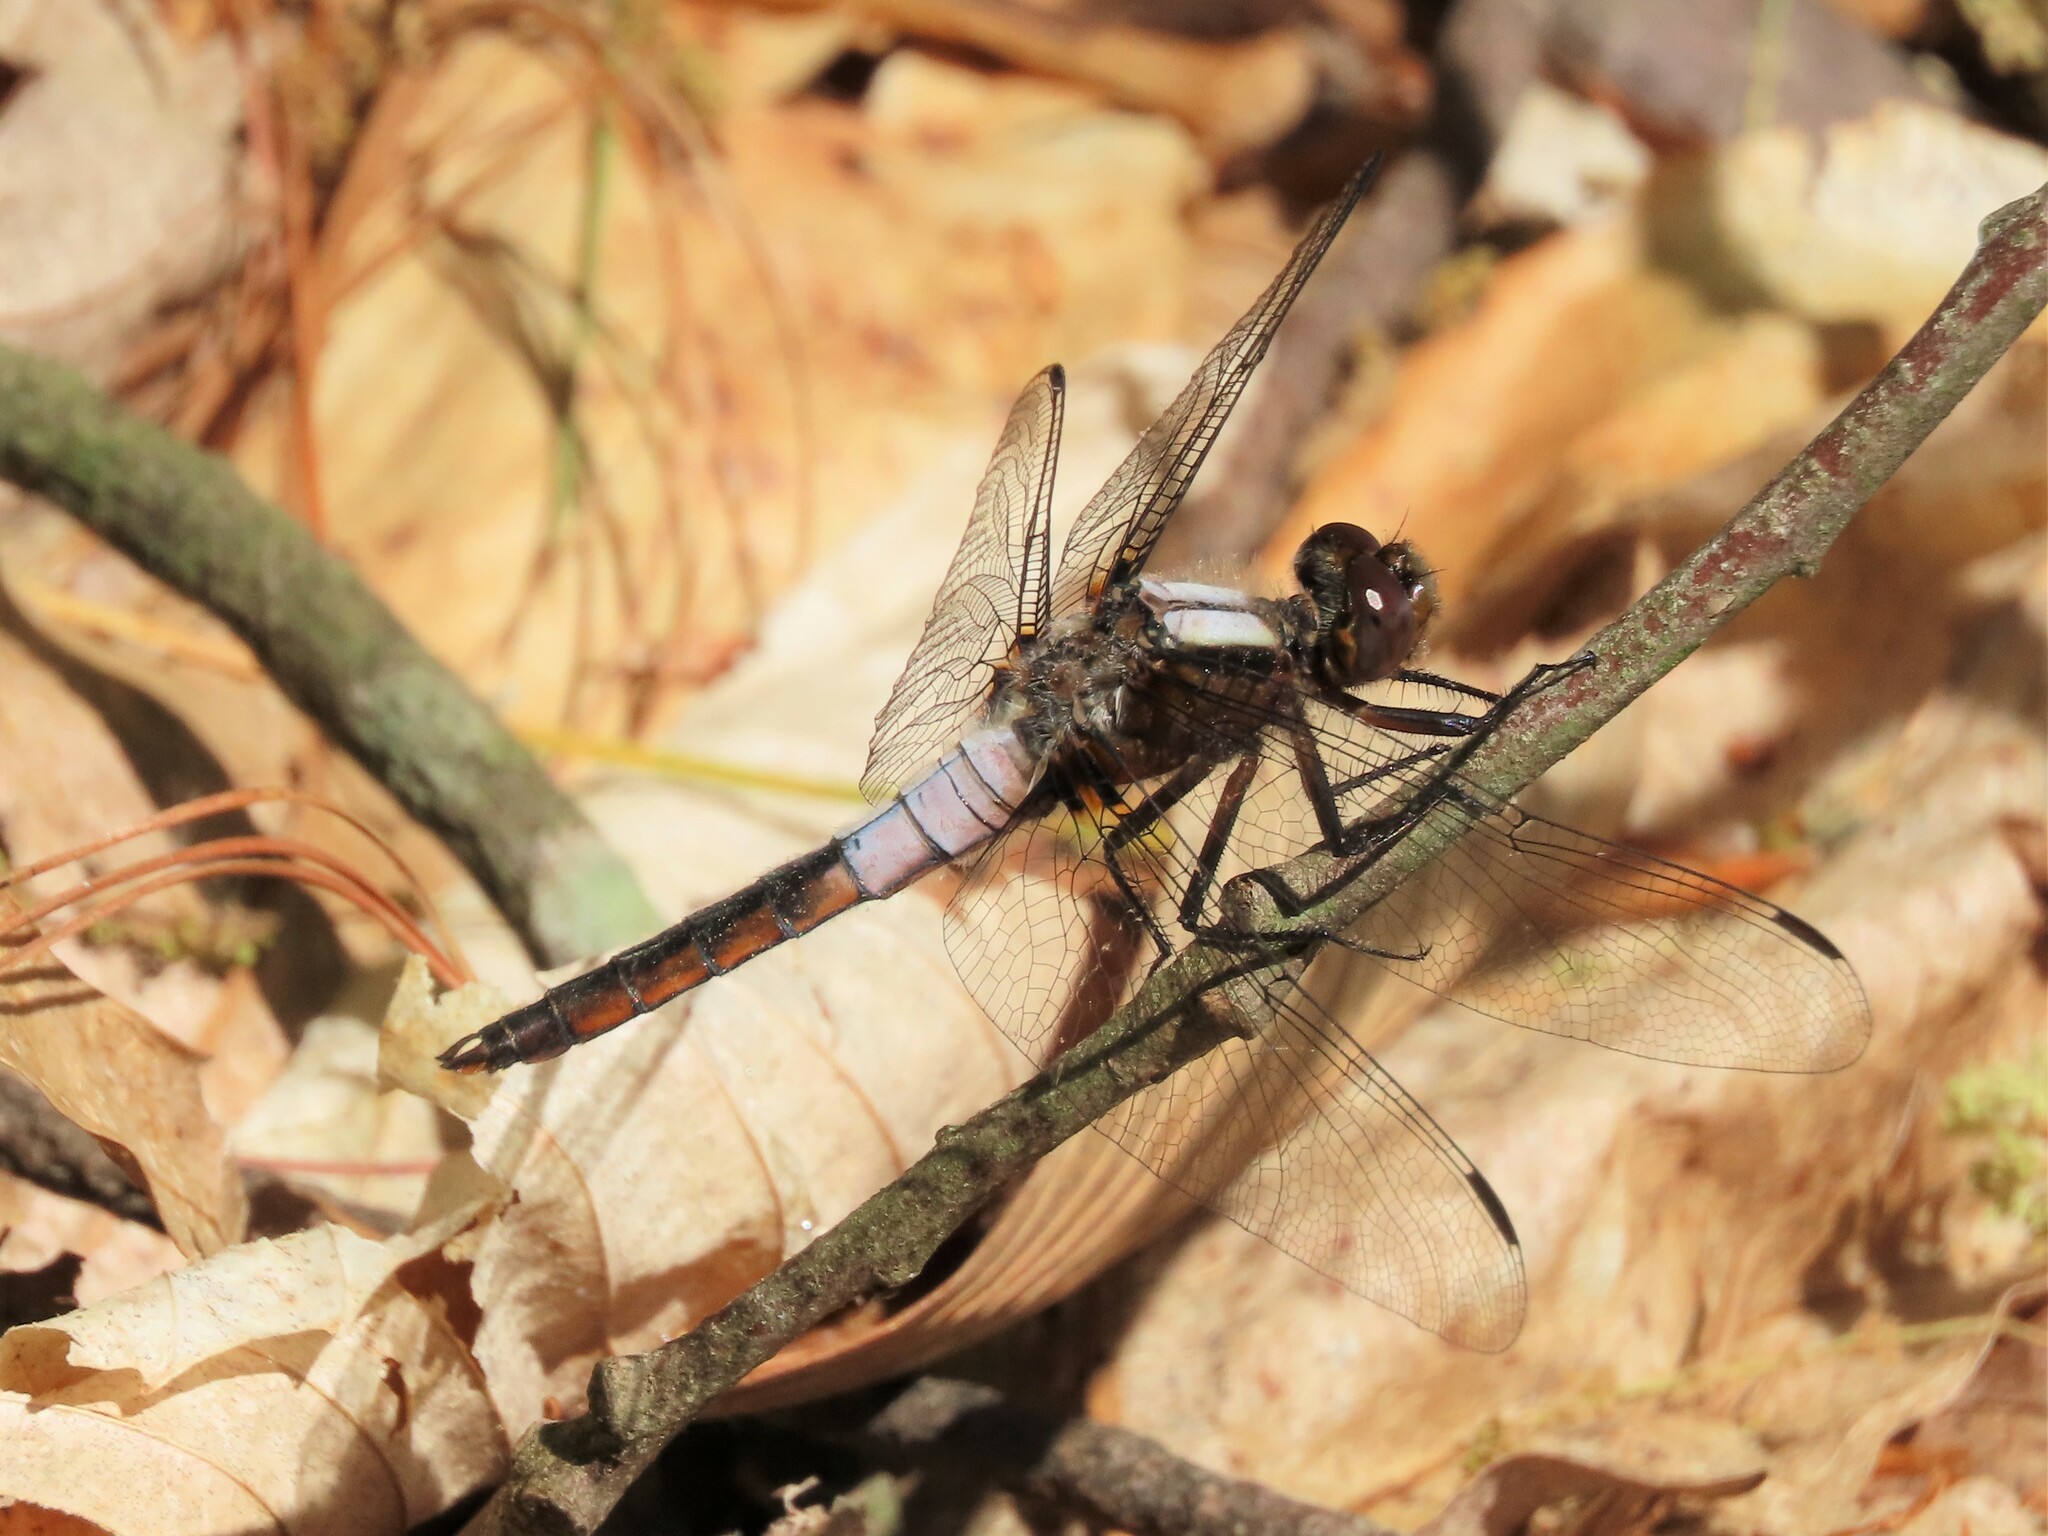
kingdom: Animalia
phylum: Arthropoda
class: Insecta
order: Odonata
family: Libellulidae
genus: Ladona
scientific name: Ladona julia
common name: Chalk-fronted corporal
